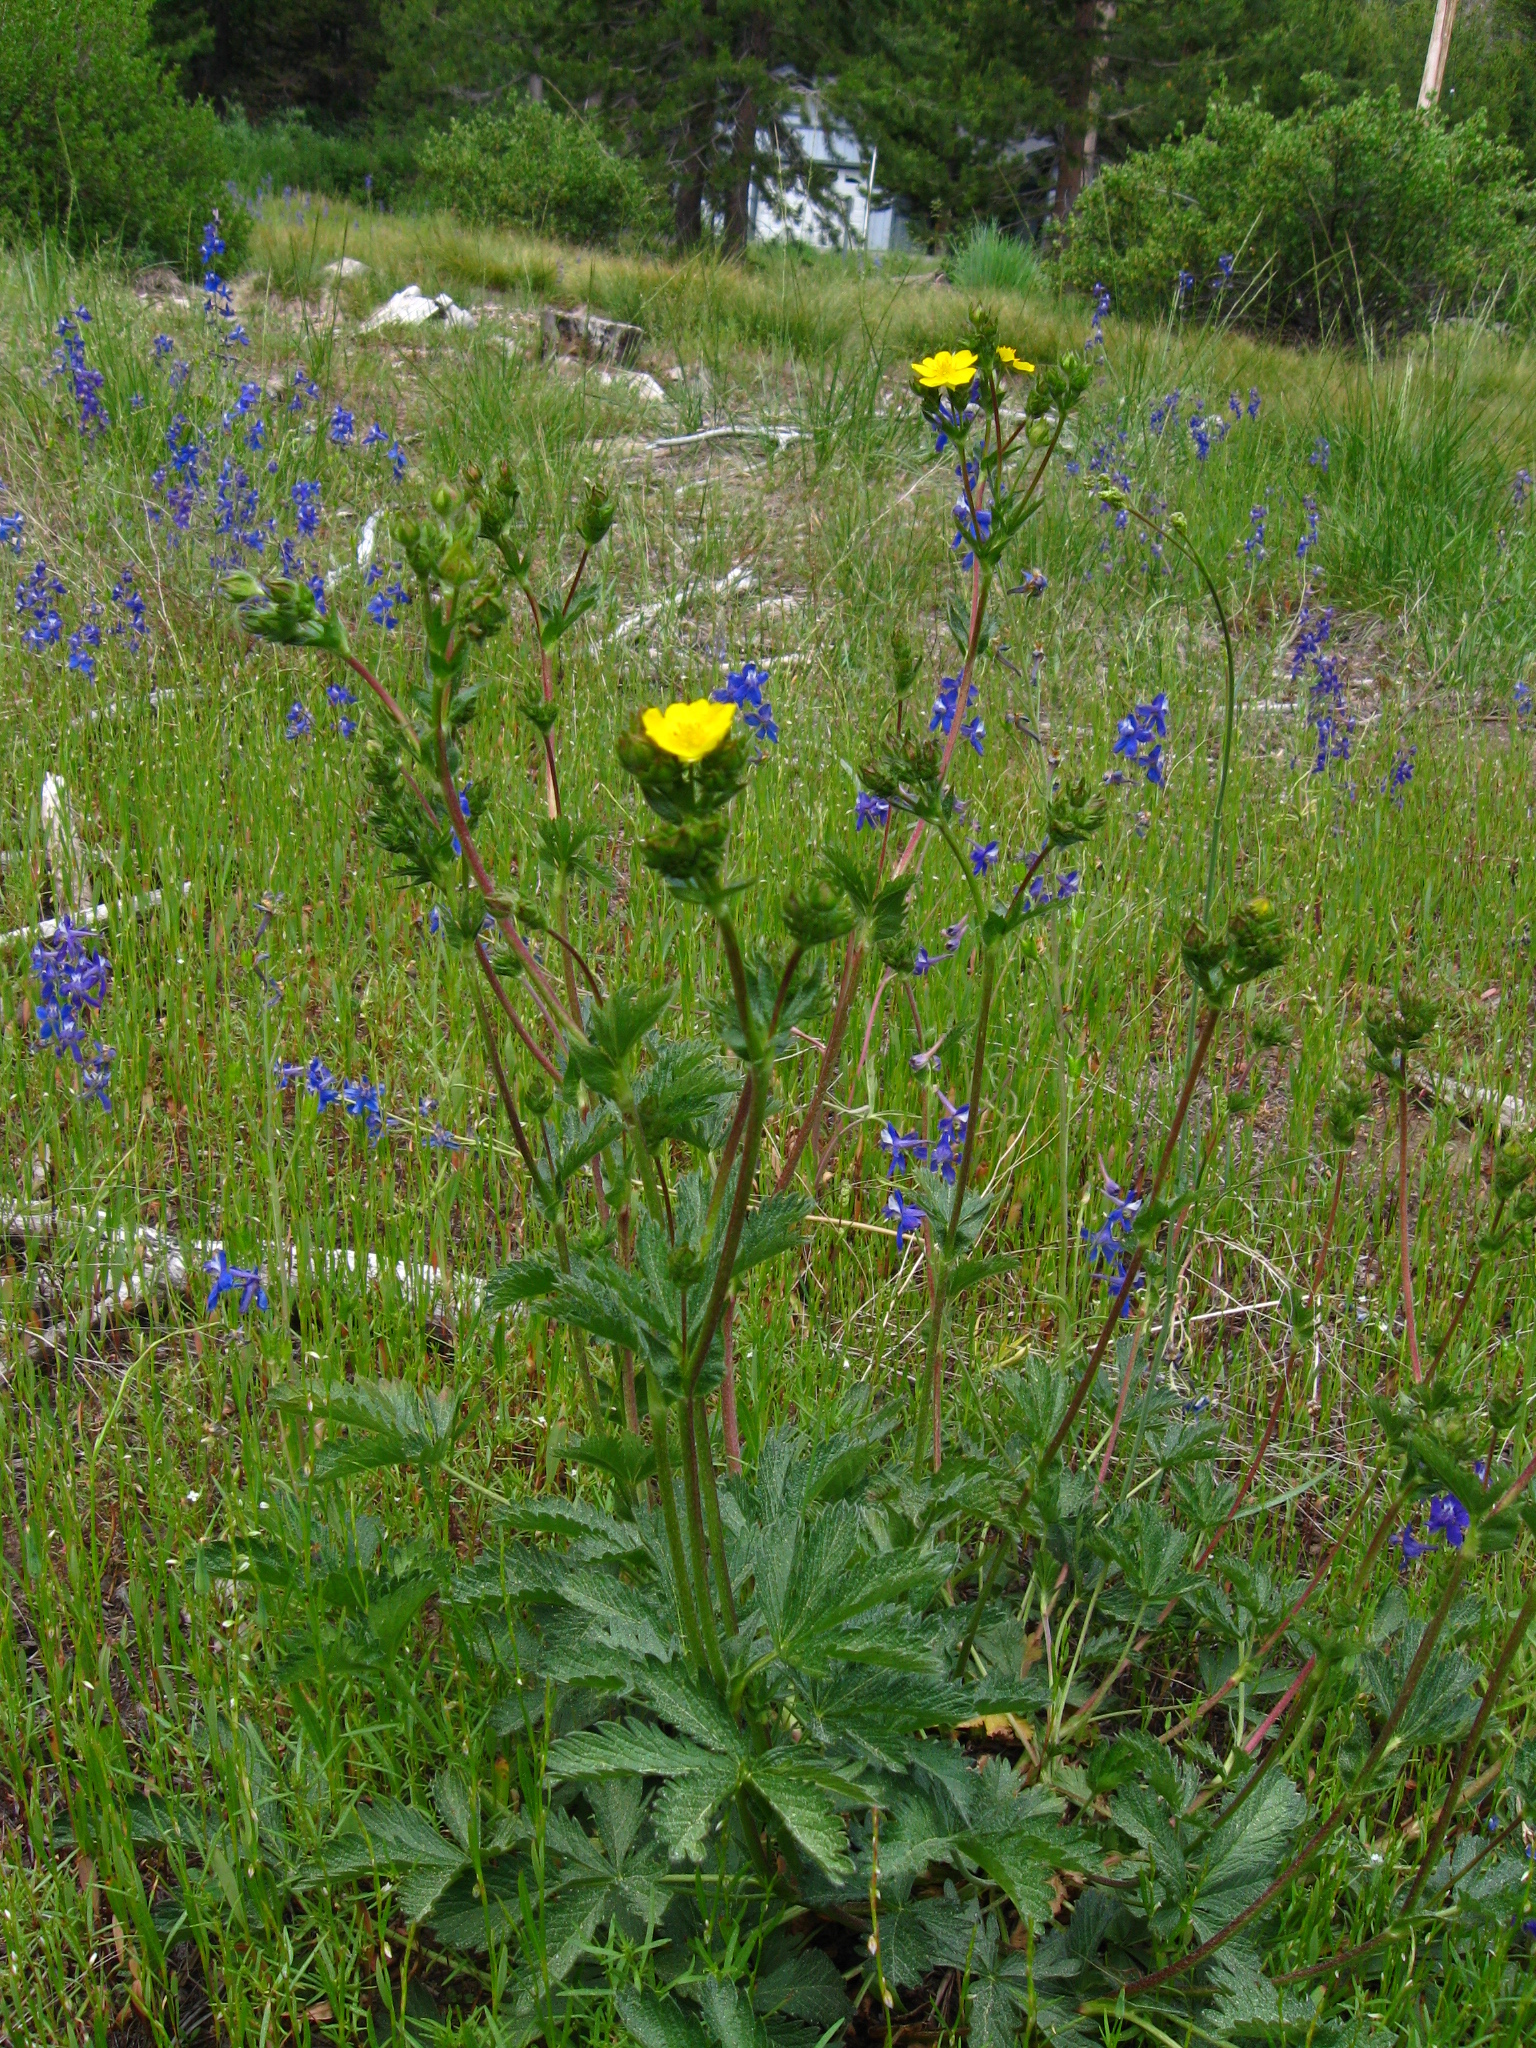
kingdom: Plantae
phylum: Tracheophyta
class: Magnoliopsida
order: Rosales
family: Rosaceae
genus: Potentilla
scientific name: Potentilla gracilis
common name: Graceful cinquefoil
